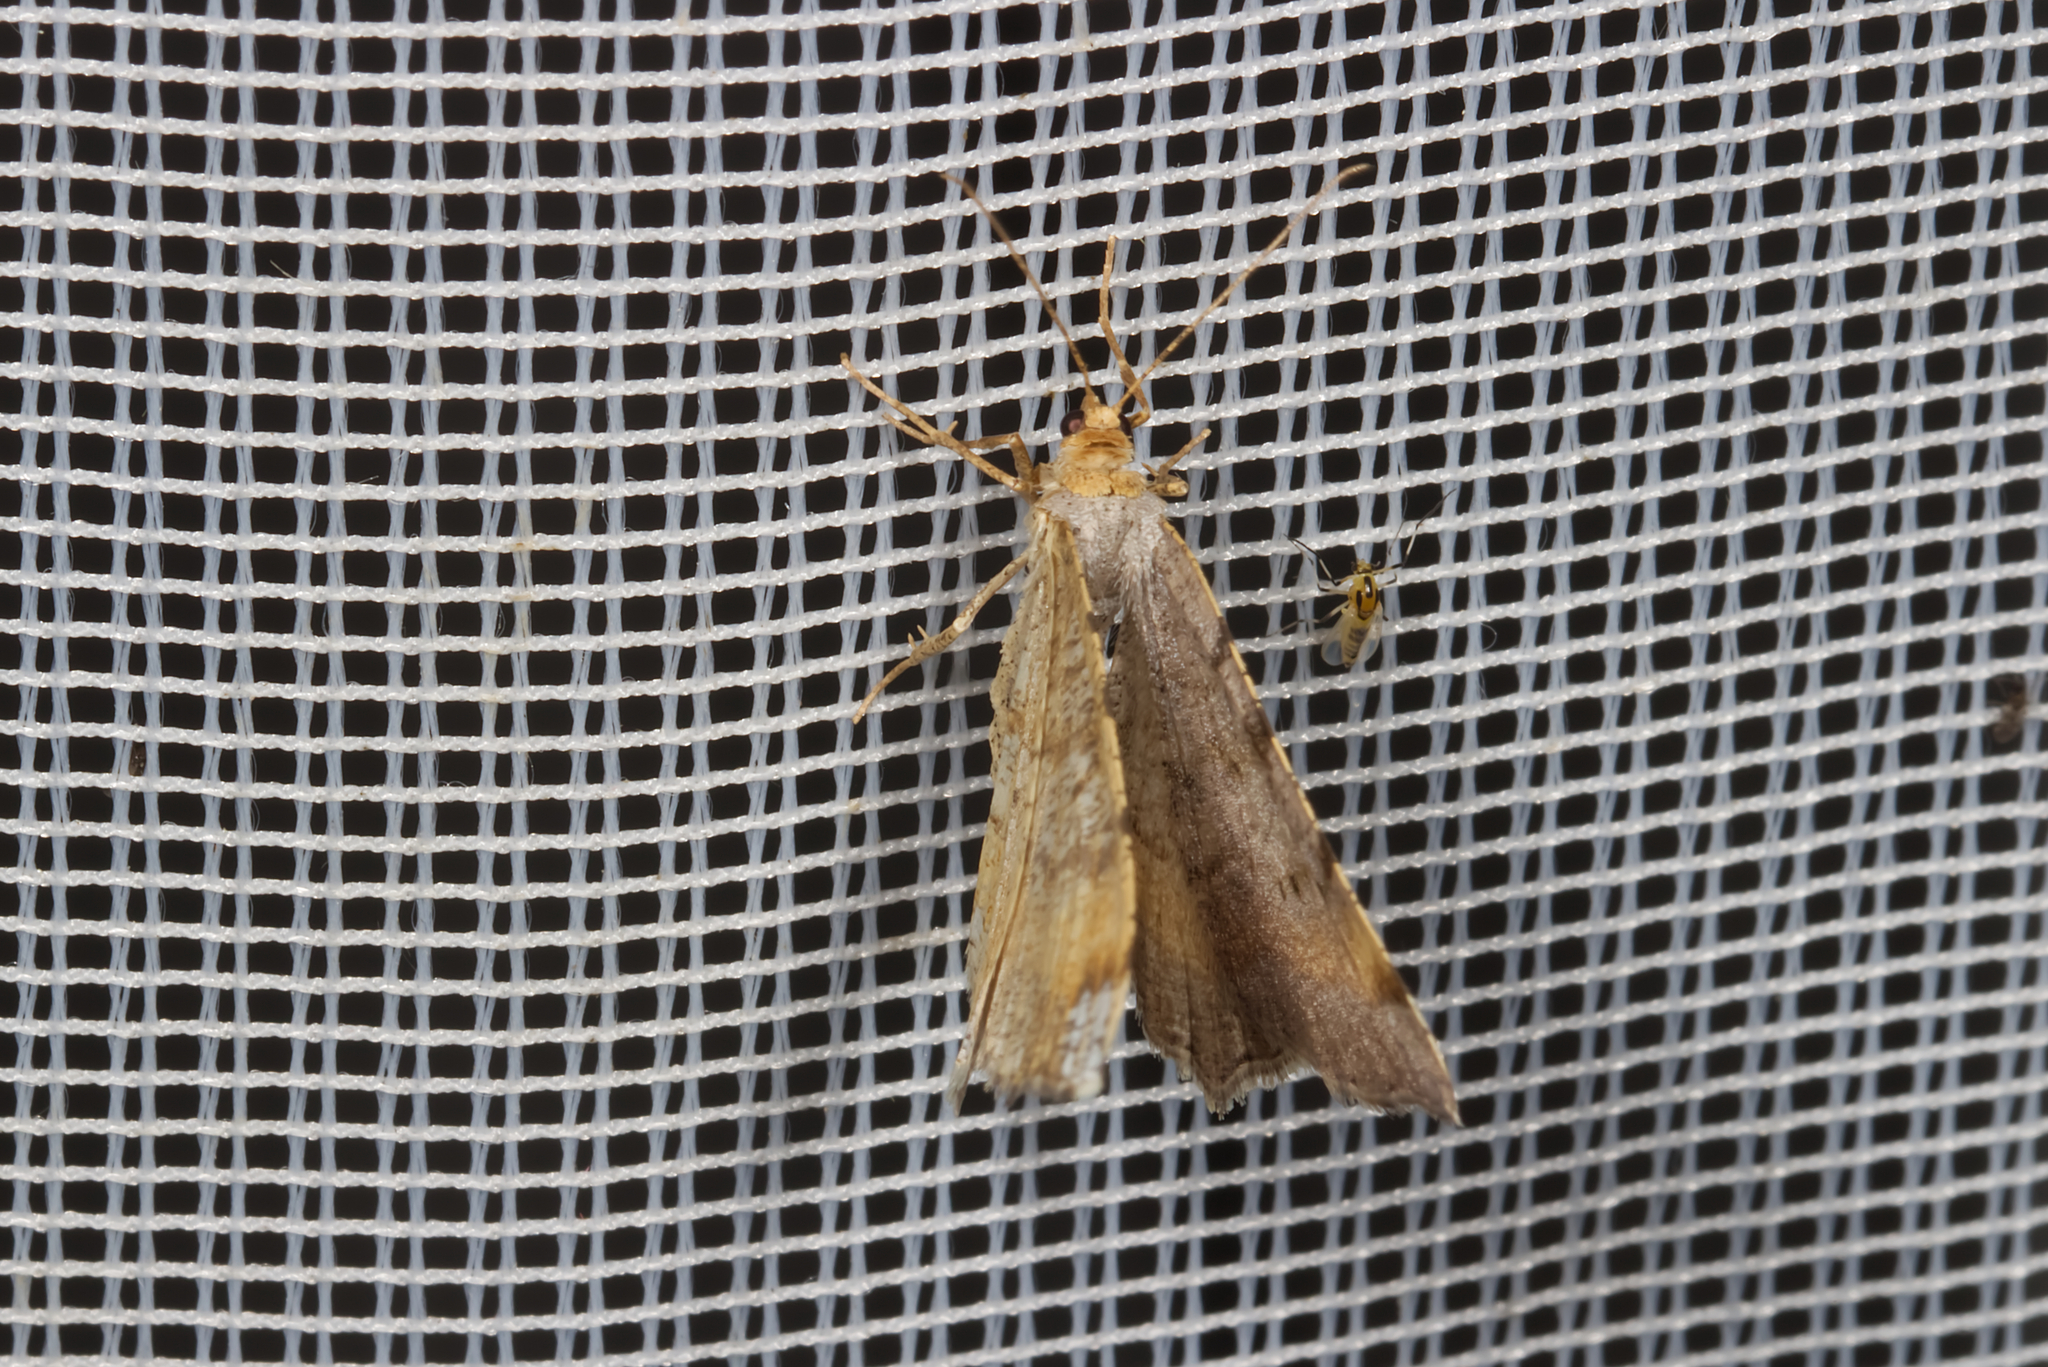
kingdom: Animalia
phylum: Arthropoda
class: Insecta
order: Lepidoptera
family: Geometridae
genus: Macaria
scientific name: Macaria liturata
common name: Tawny-barred angle
